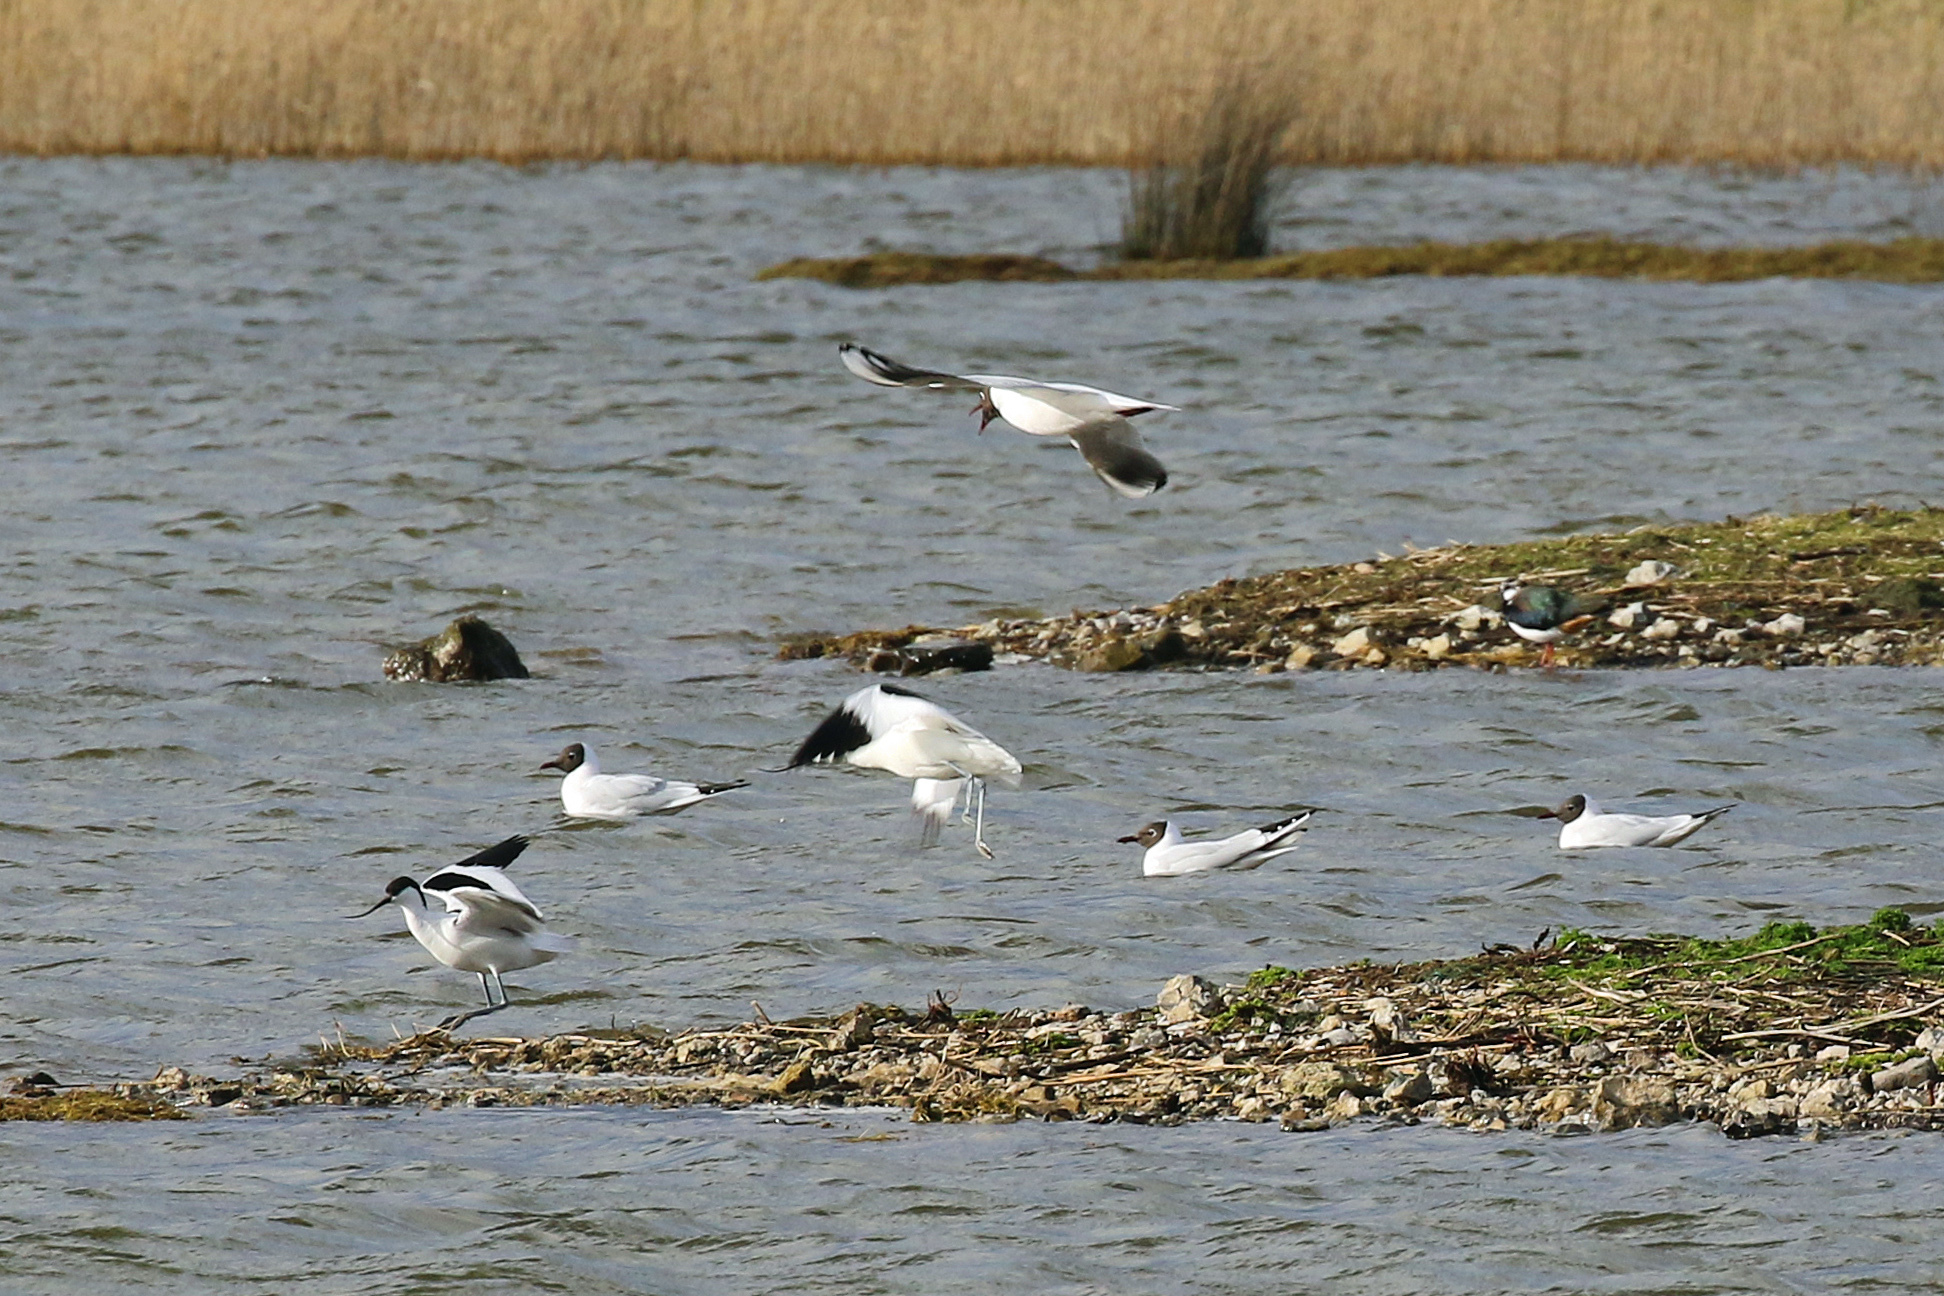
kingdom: Animalia
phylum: Chordata
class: Aves
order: Charadriiformes
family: Laridae
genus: Chroicocephalus
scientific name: Chroicocephalus ridibundus
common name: Black-headed gull
